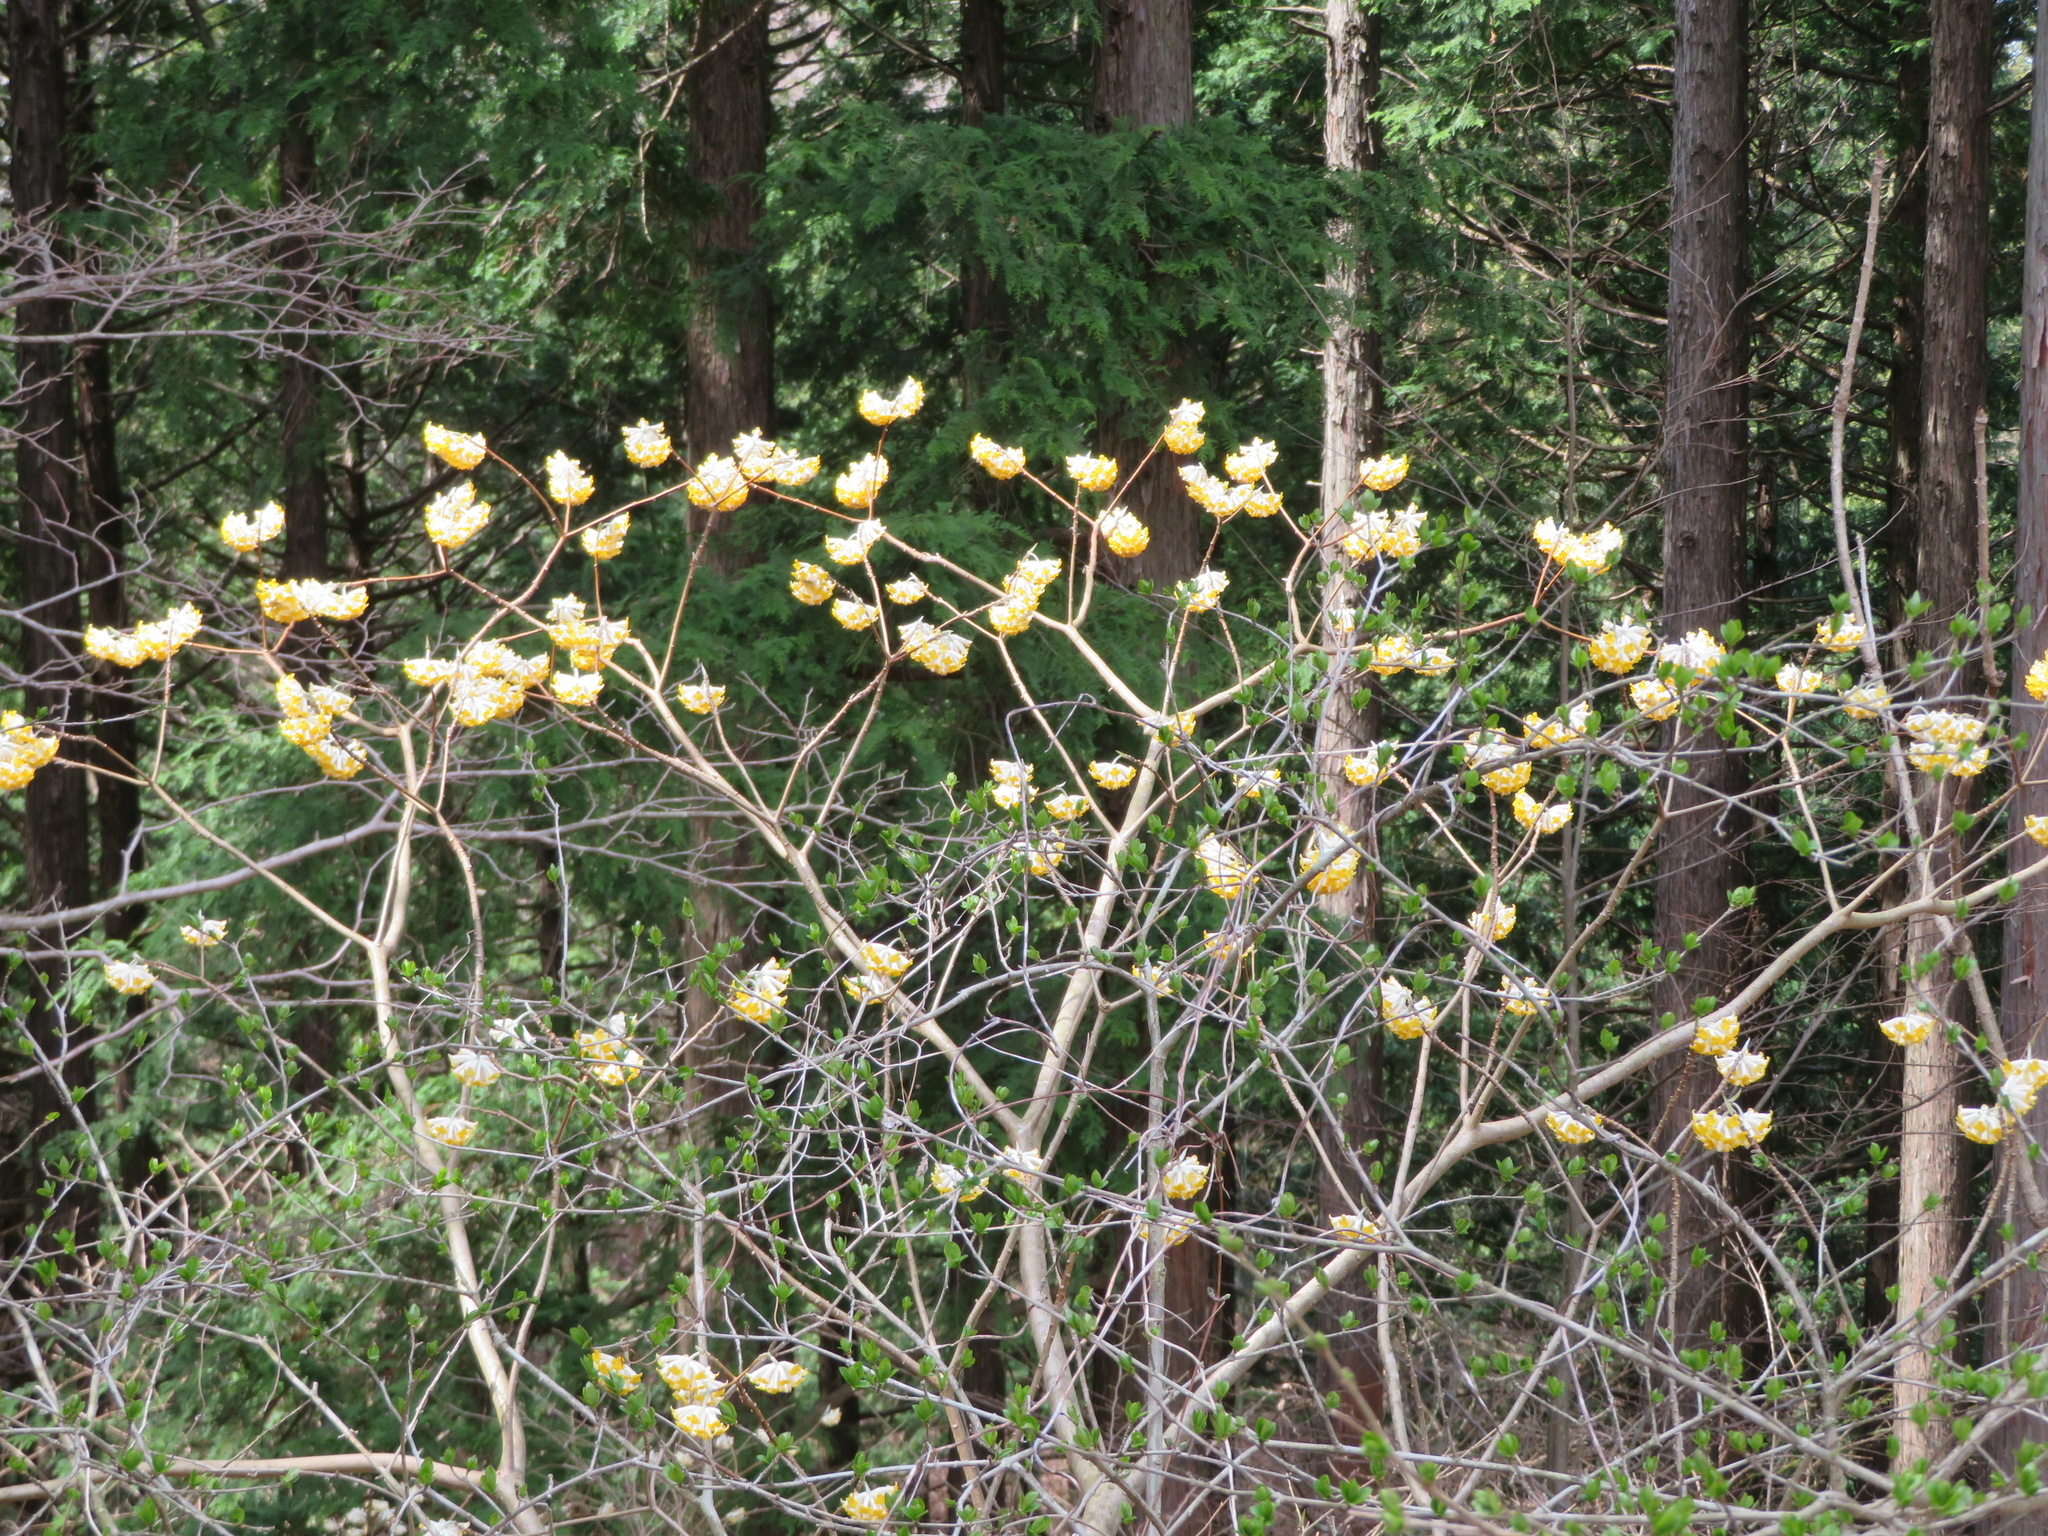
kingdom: Plantae
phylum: Tracheophyta
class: Magnoliopsida
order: Malvales
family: Thymelaeaceae
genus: Edgeworthia
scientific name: Edgeworthia chrysantha
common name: Oriental paperbush
